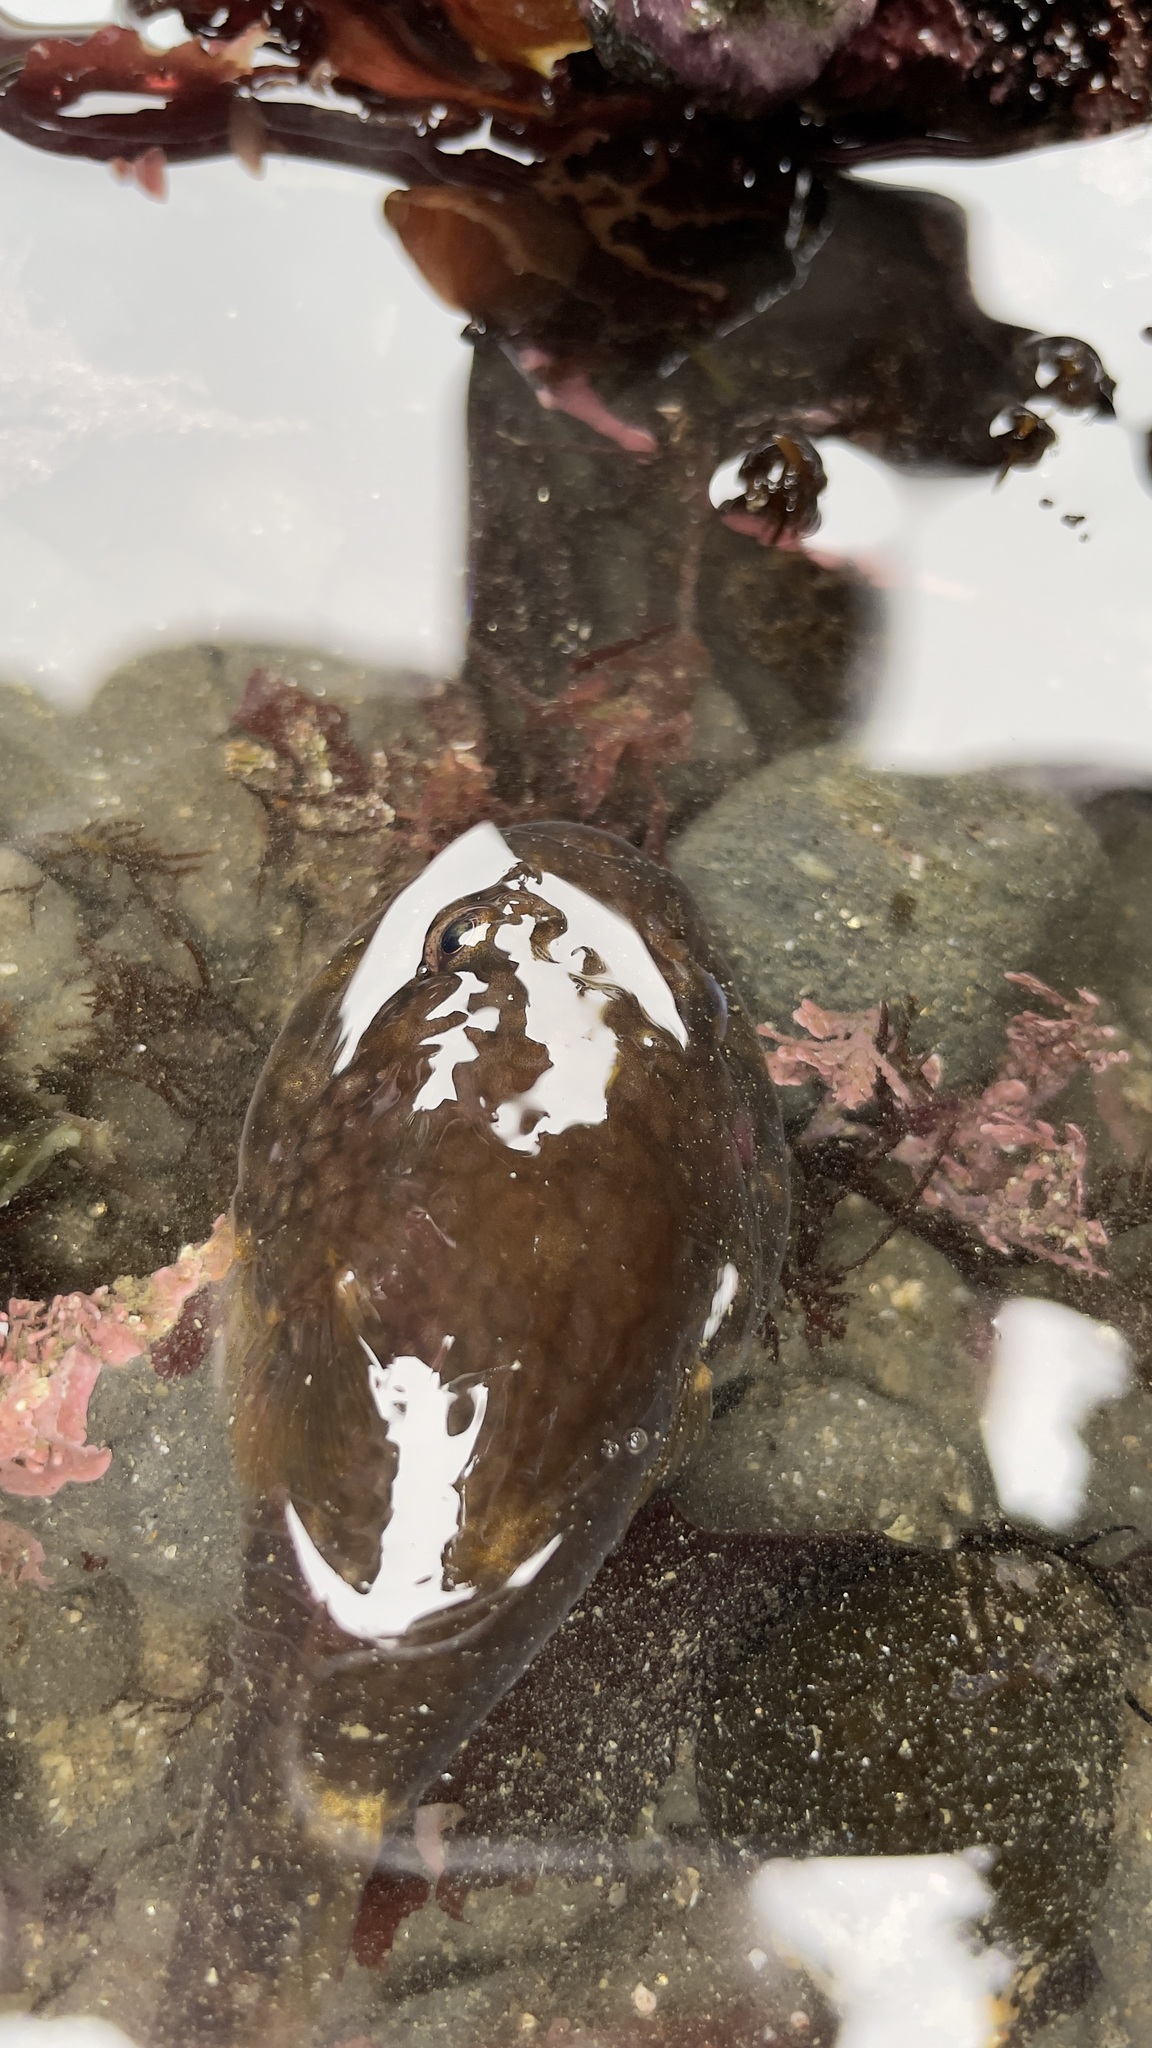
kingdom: Animalia
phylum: Chordata
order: Gobiesociformes
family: Gobiesocidae
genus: Gobiesox
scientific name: Gobiesox maeandricus
